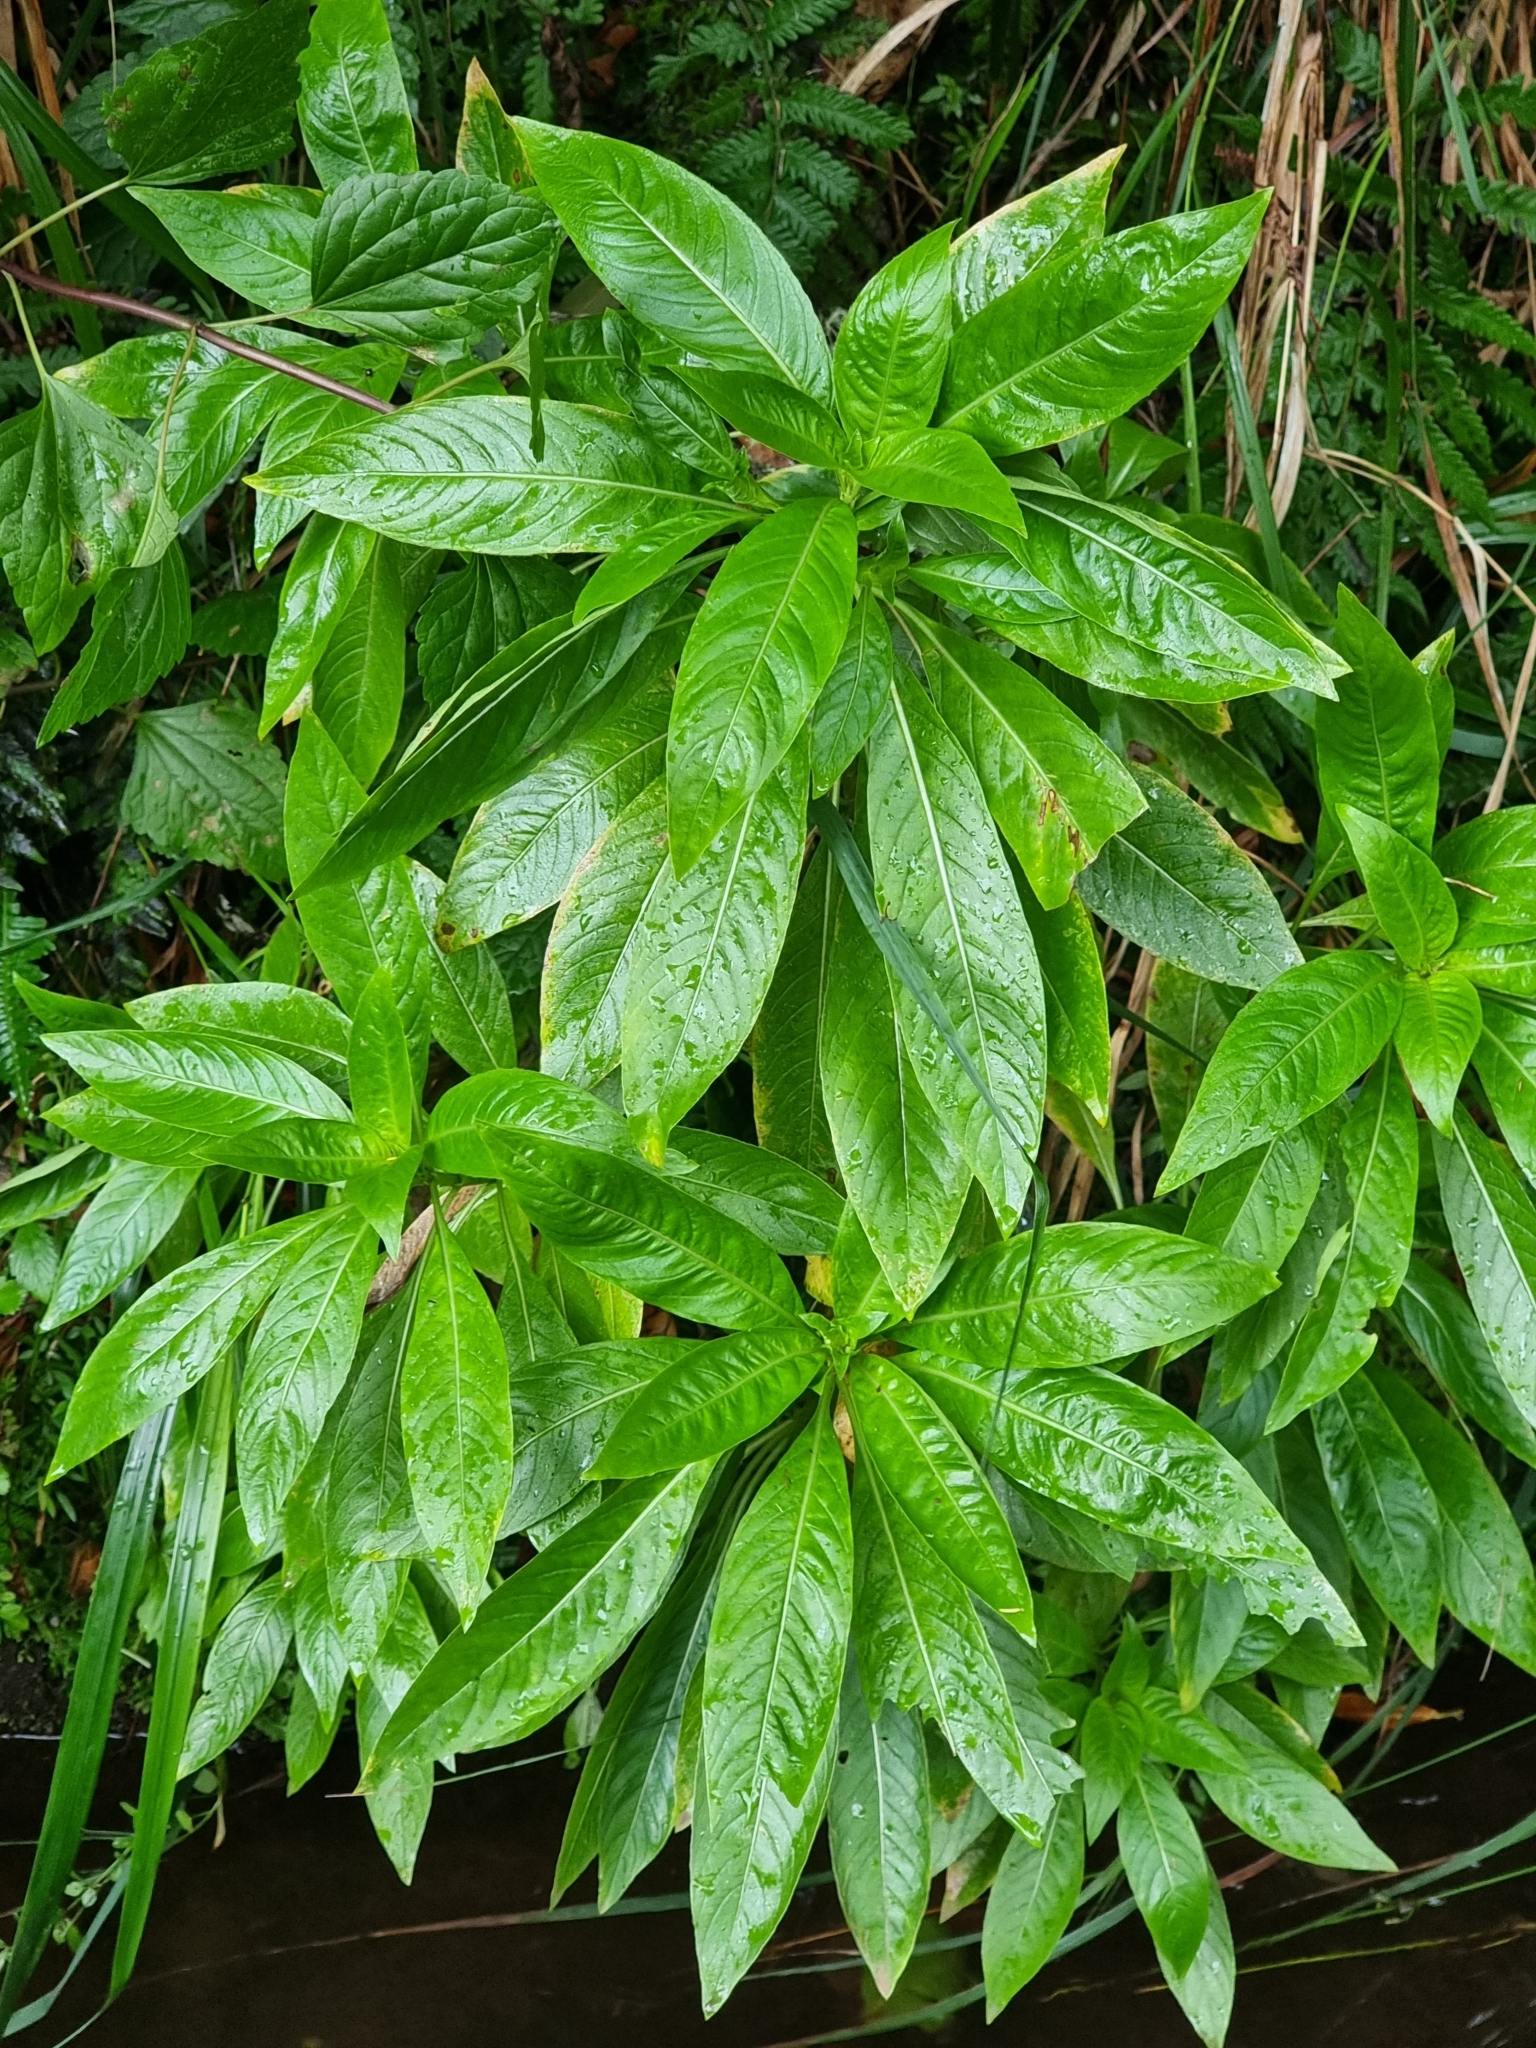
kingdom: Plantae
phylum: Tracheophyta
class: Magnoliopsida
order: Gentianales
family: Rubiaceae
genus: Phyllis
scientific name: Phyllis nobla
